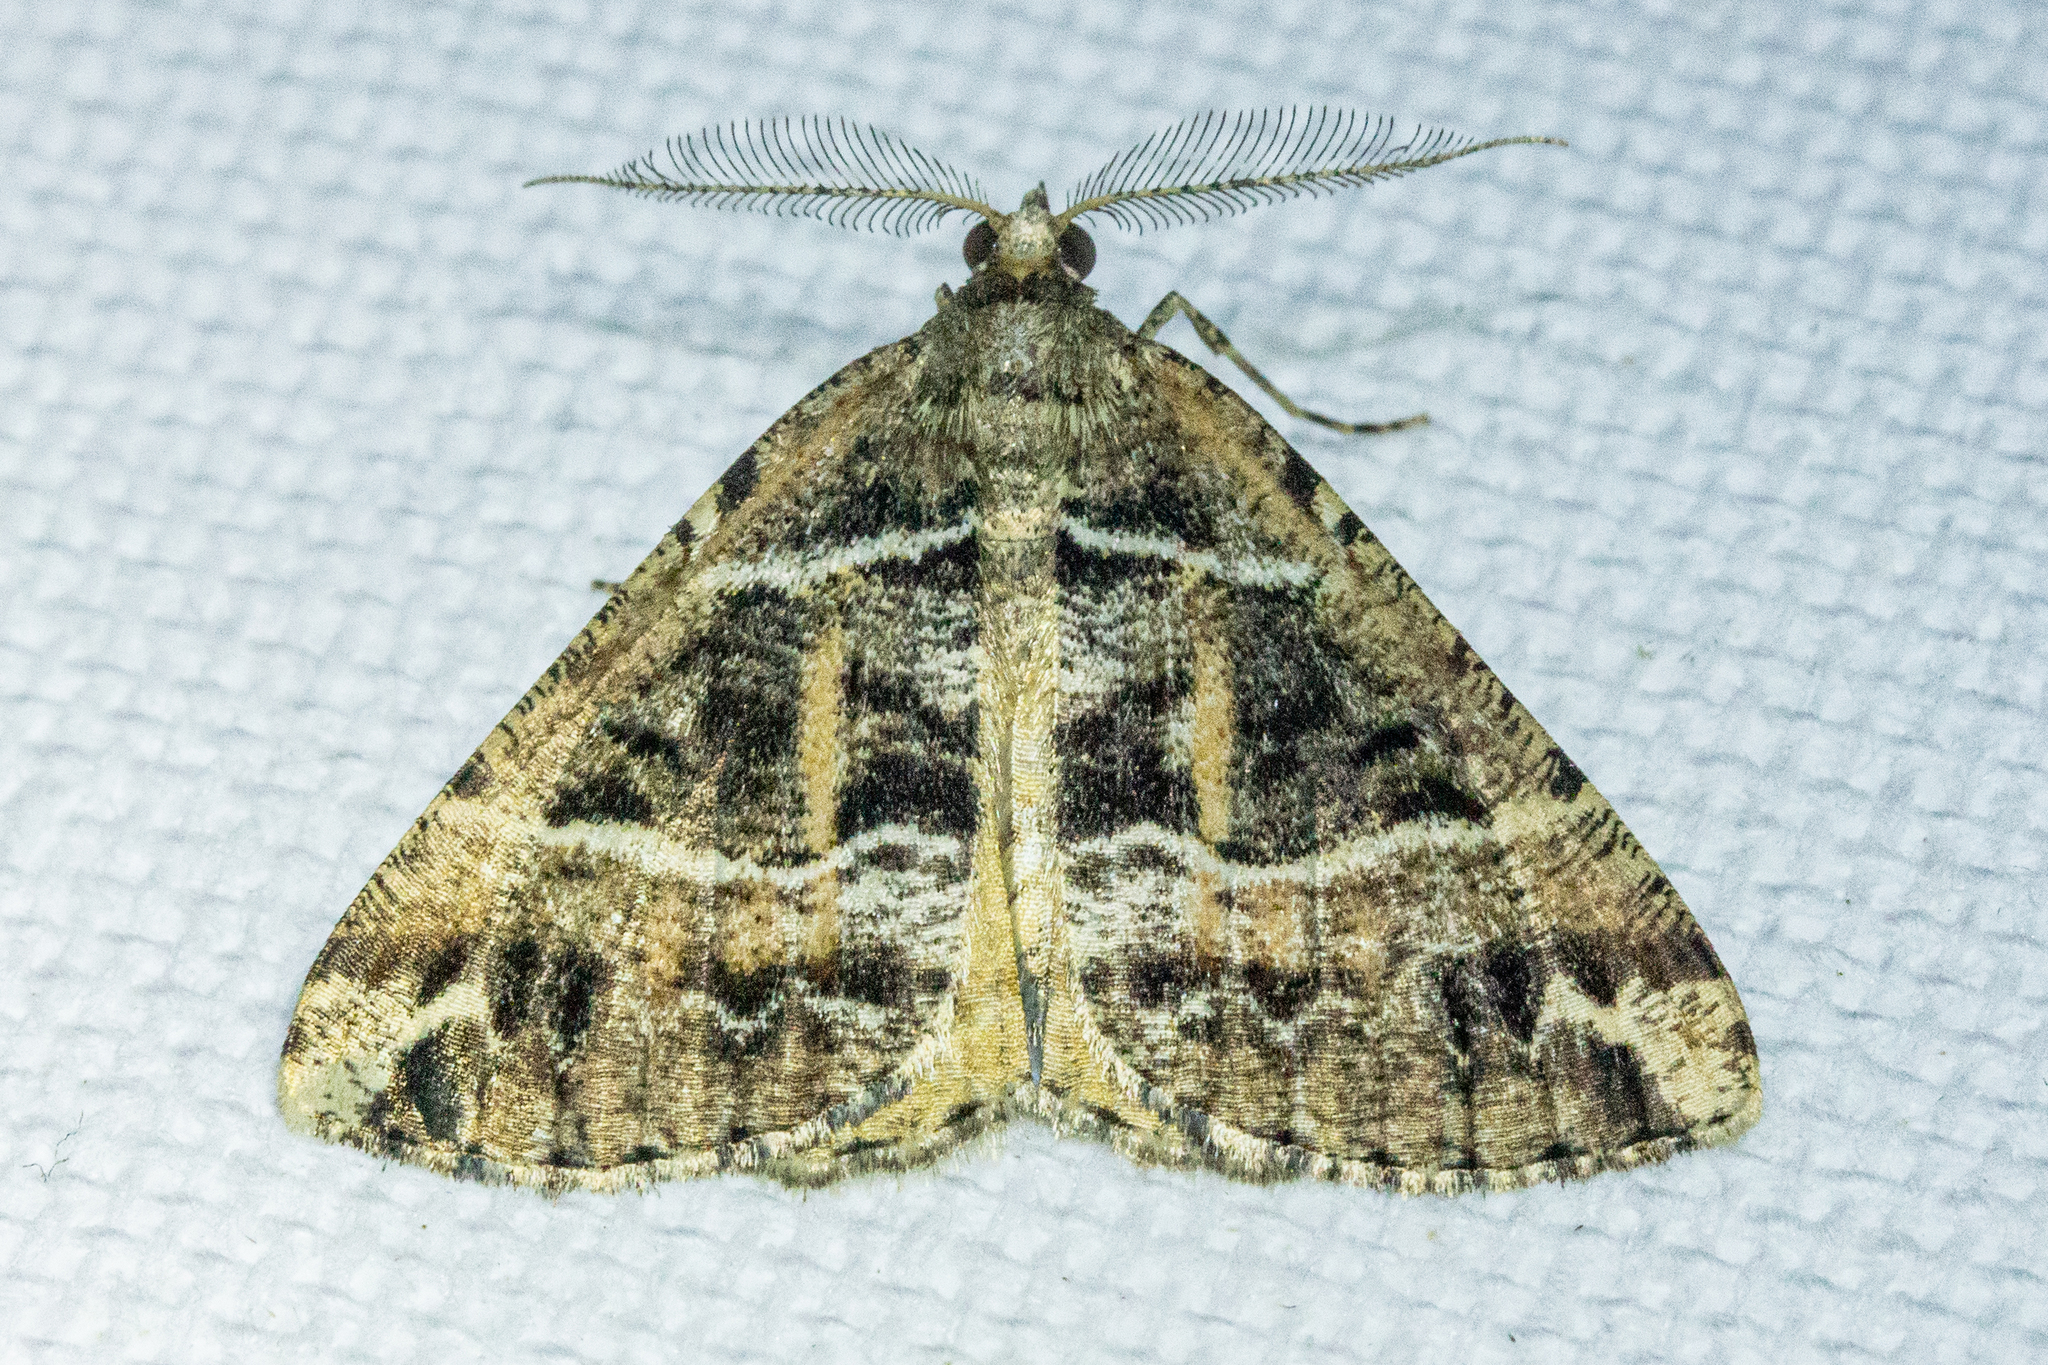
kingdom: Animalia
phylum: Arthropoda
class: Insecta
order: Lepidoptera
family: Geometridae
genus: Pseudocoremia
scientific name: Pseudocoremia melinata
